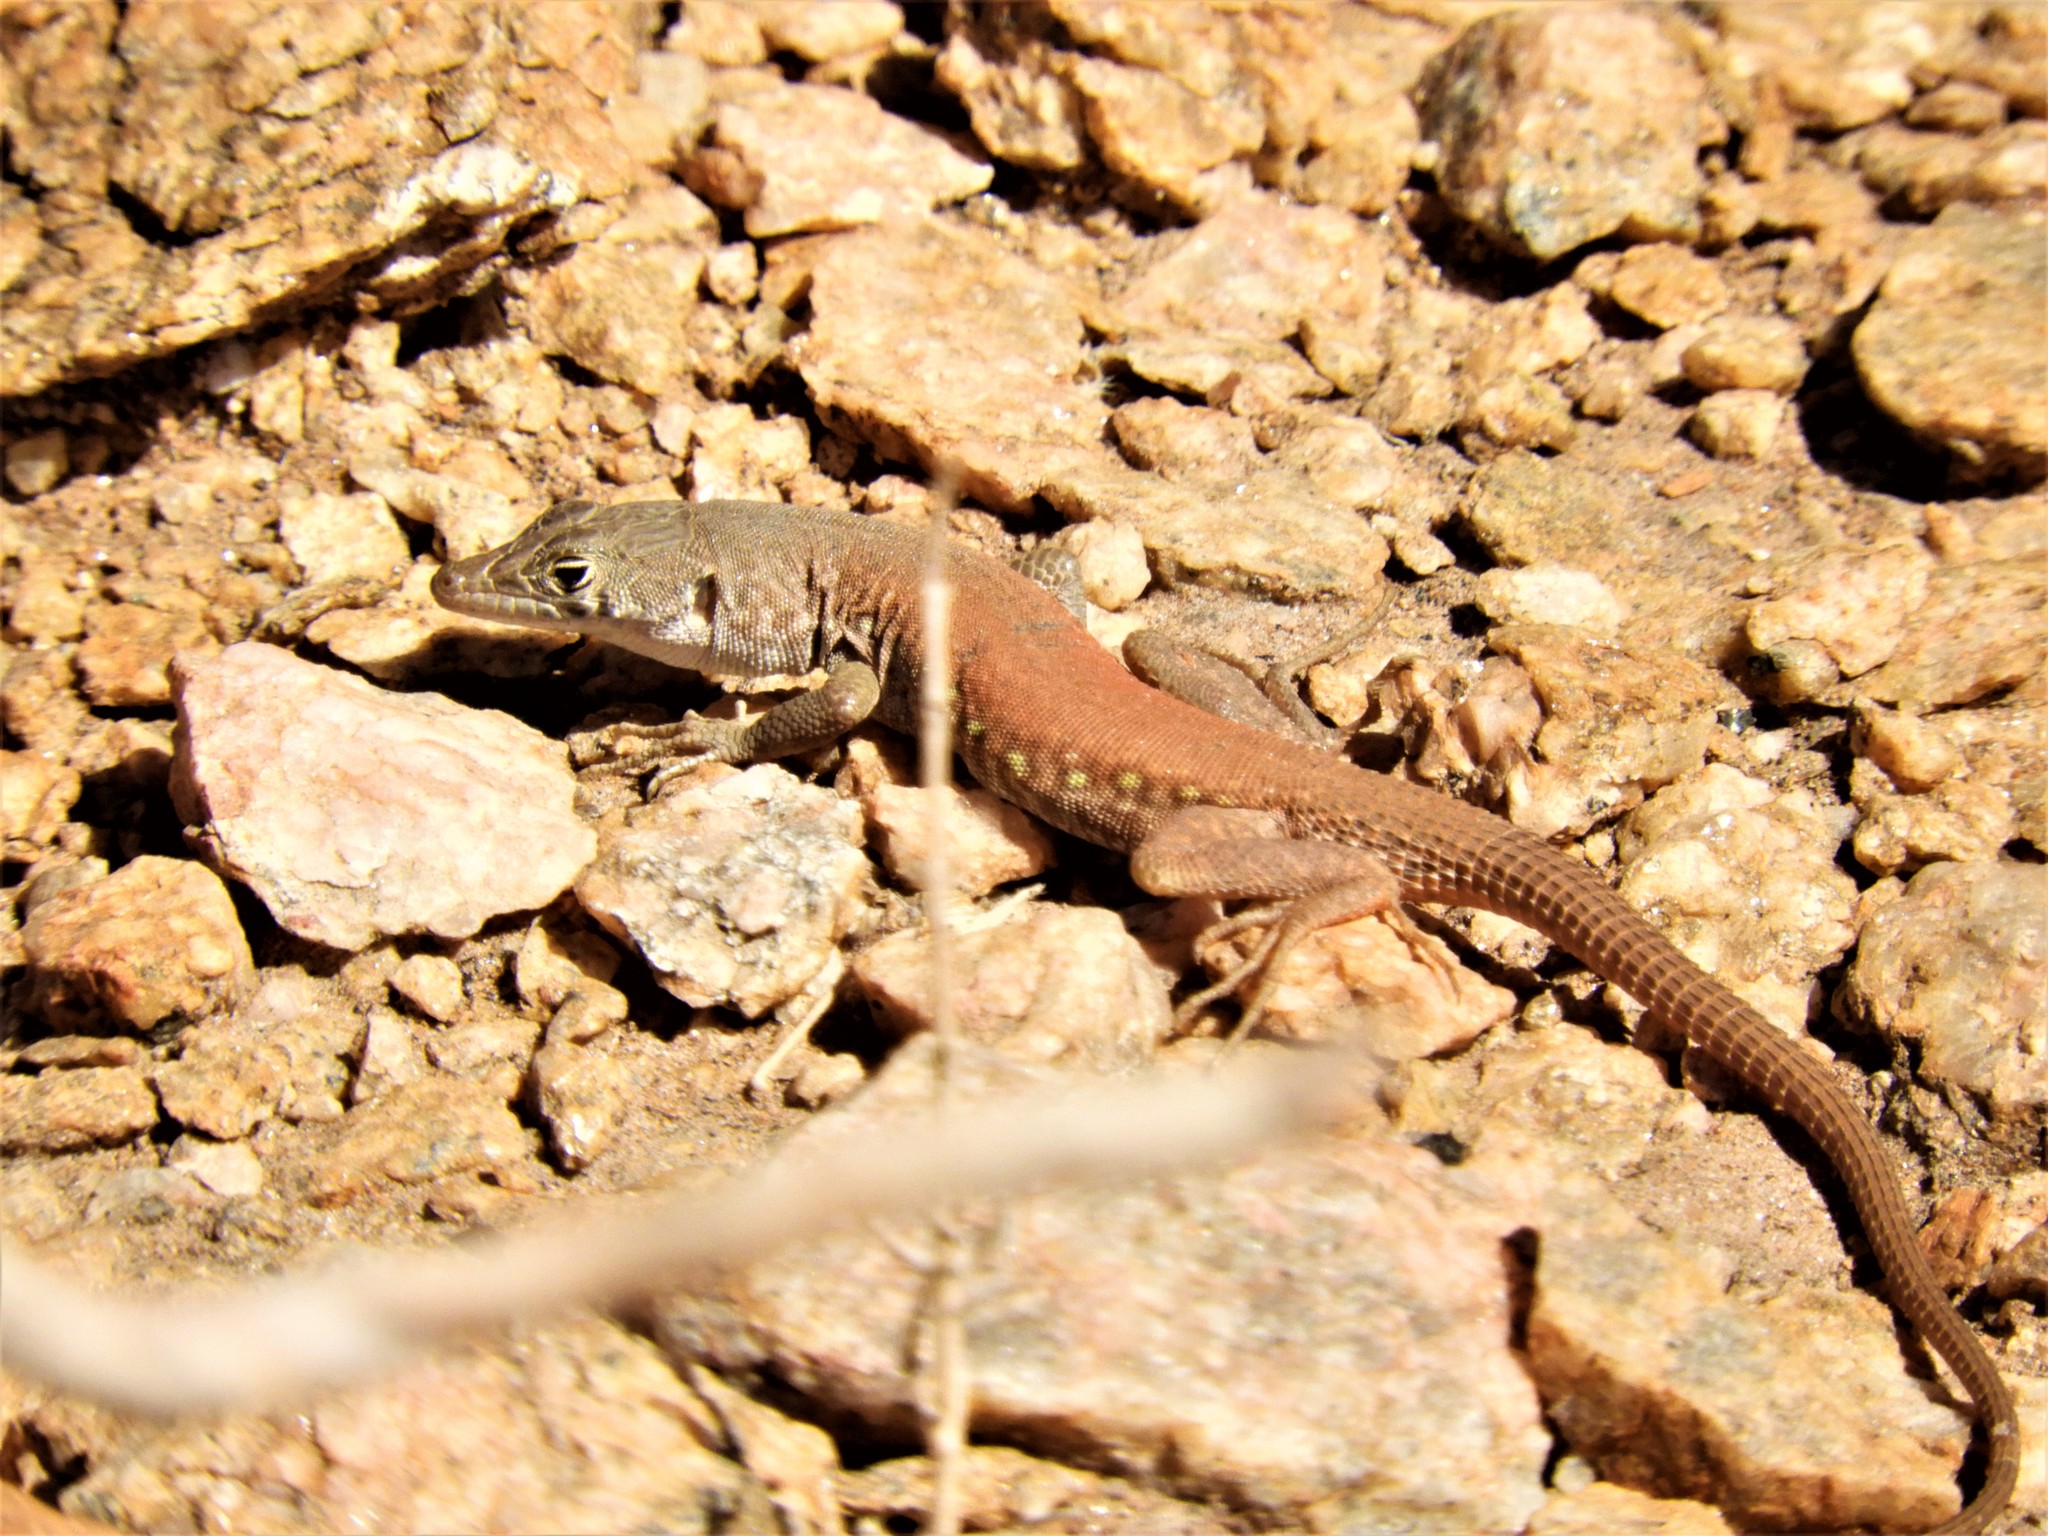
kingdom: Animalia
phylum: Chordata
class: Squamata
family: Lacertidae
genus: Pedioplanis
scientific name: Pedioplanis inornata
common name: Plain sand lizard
